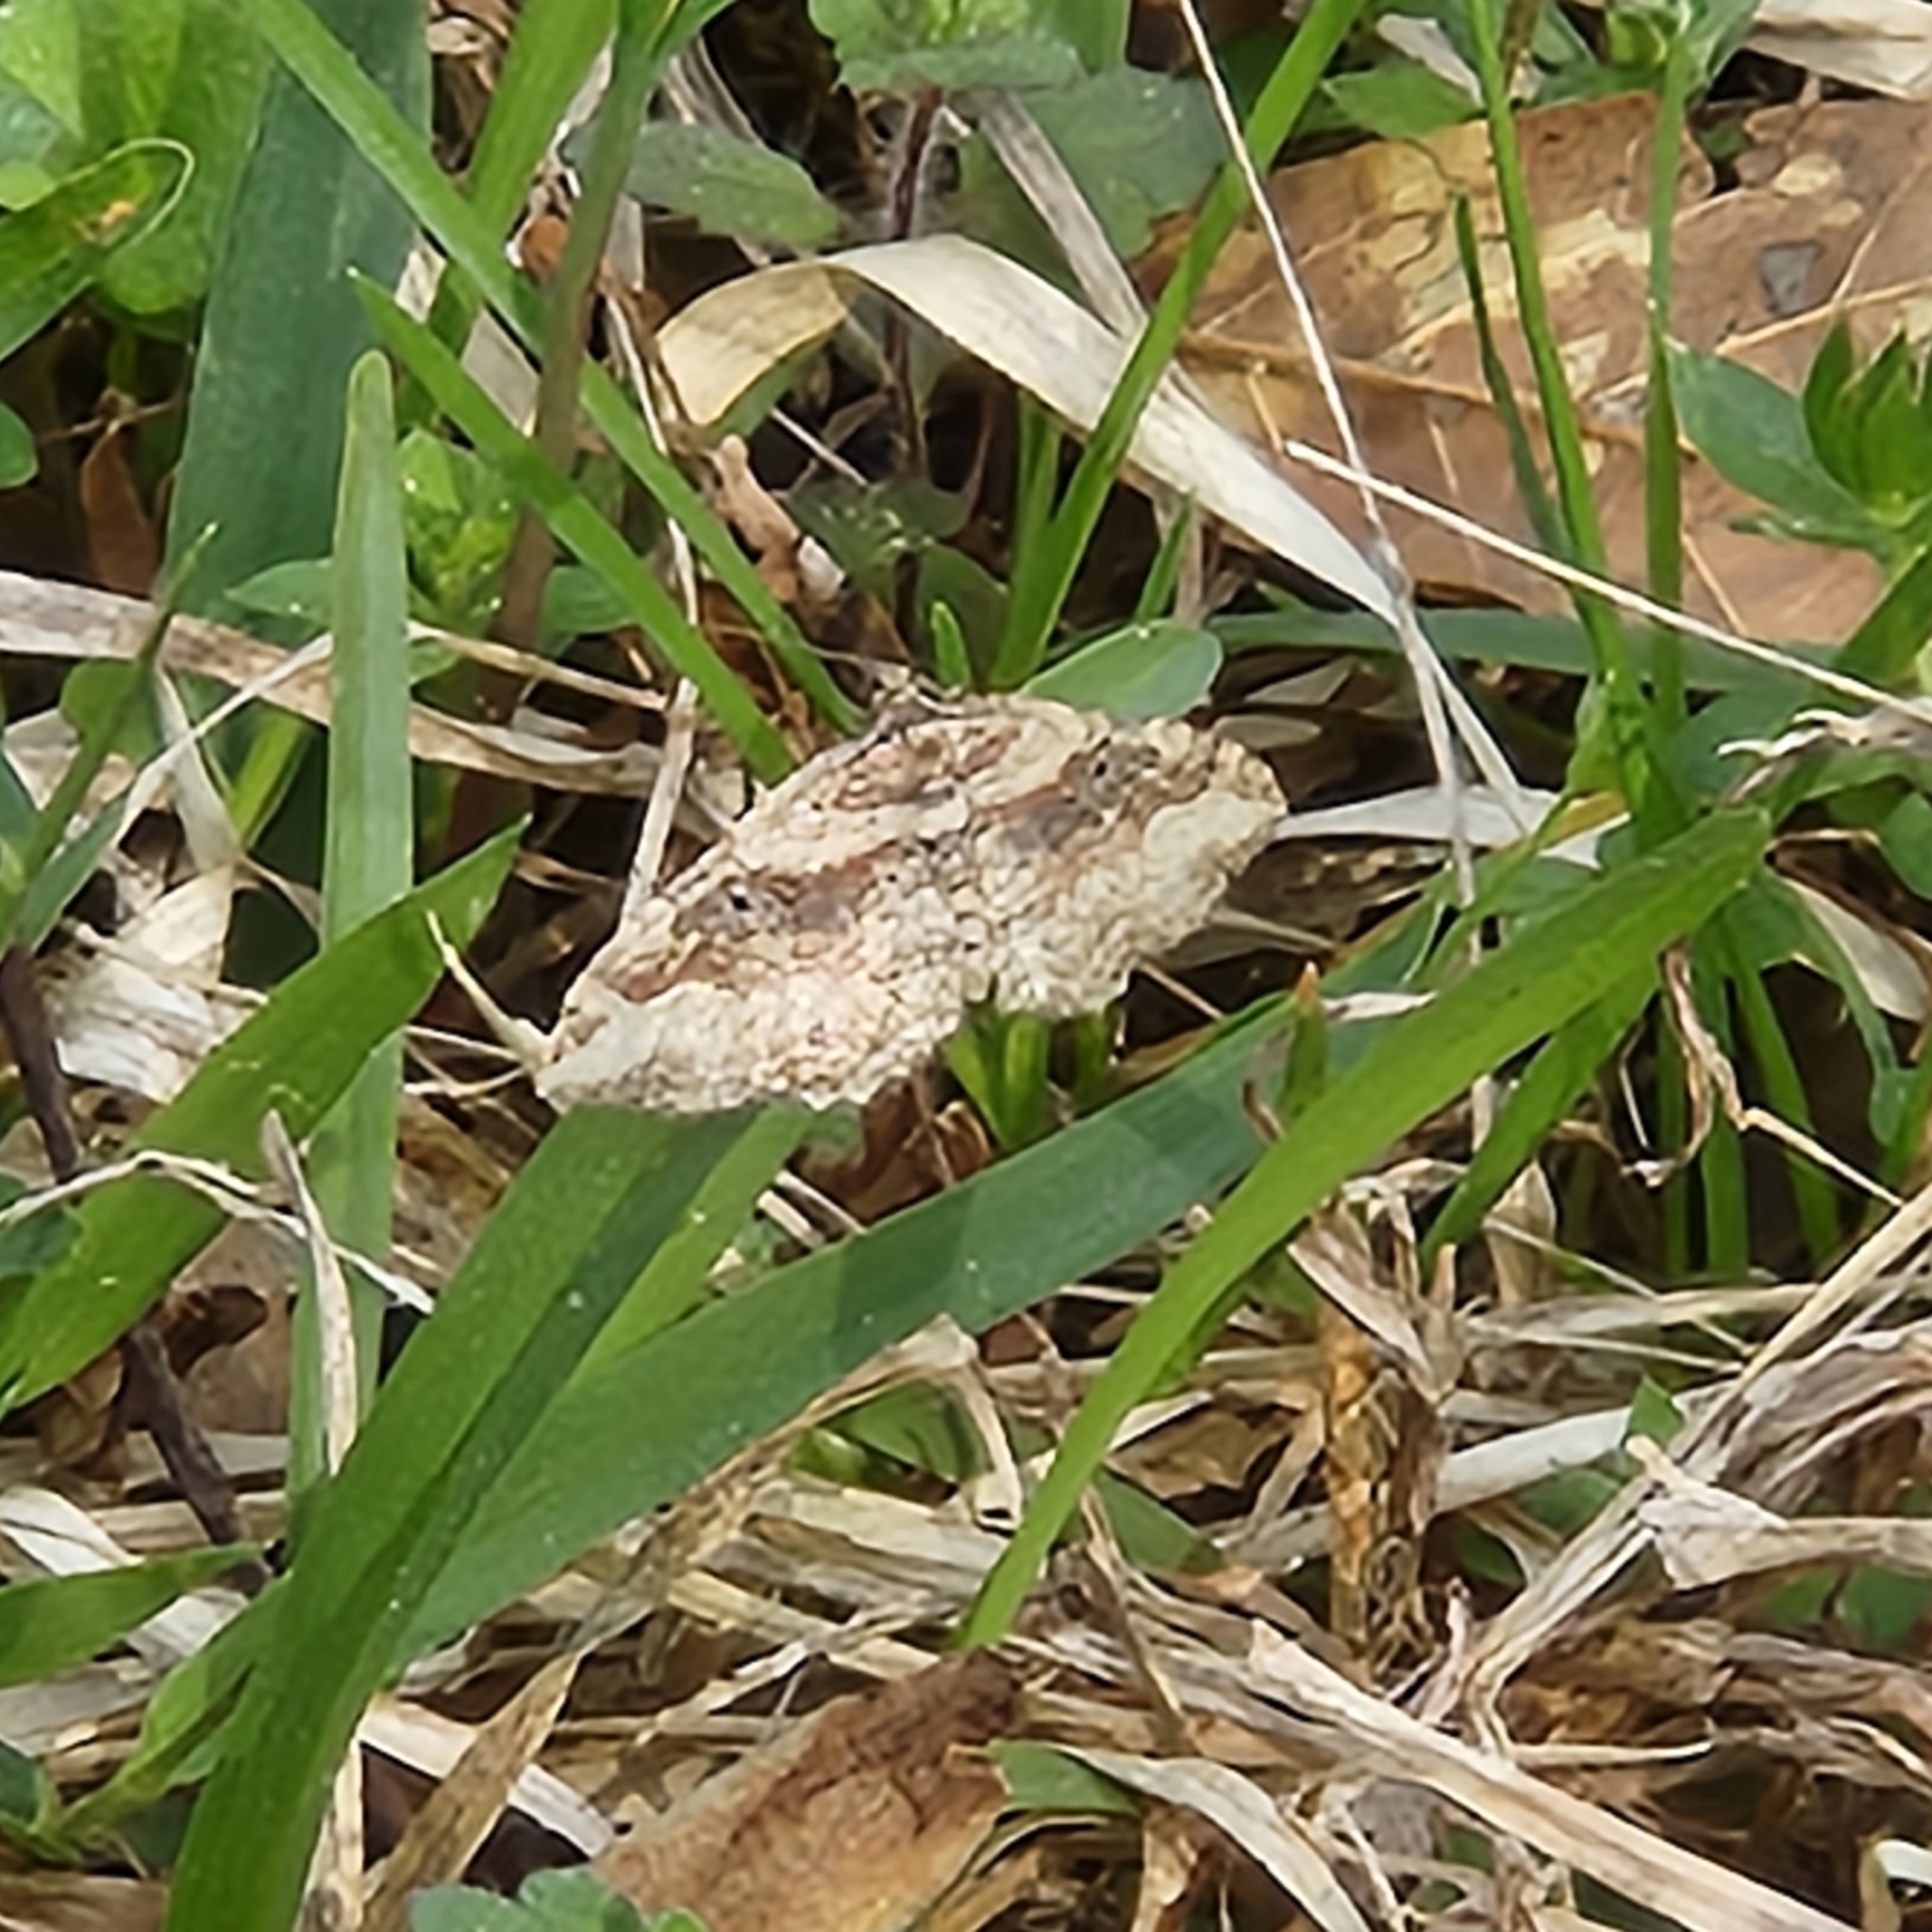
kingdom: Animalia
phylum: Arthropoda
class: Insecta
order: Lepidoptera
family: Geometridae
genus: Costaconvexa
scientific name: Costaconvexa centrostrigaria
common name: Bent-line carpet
